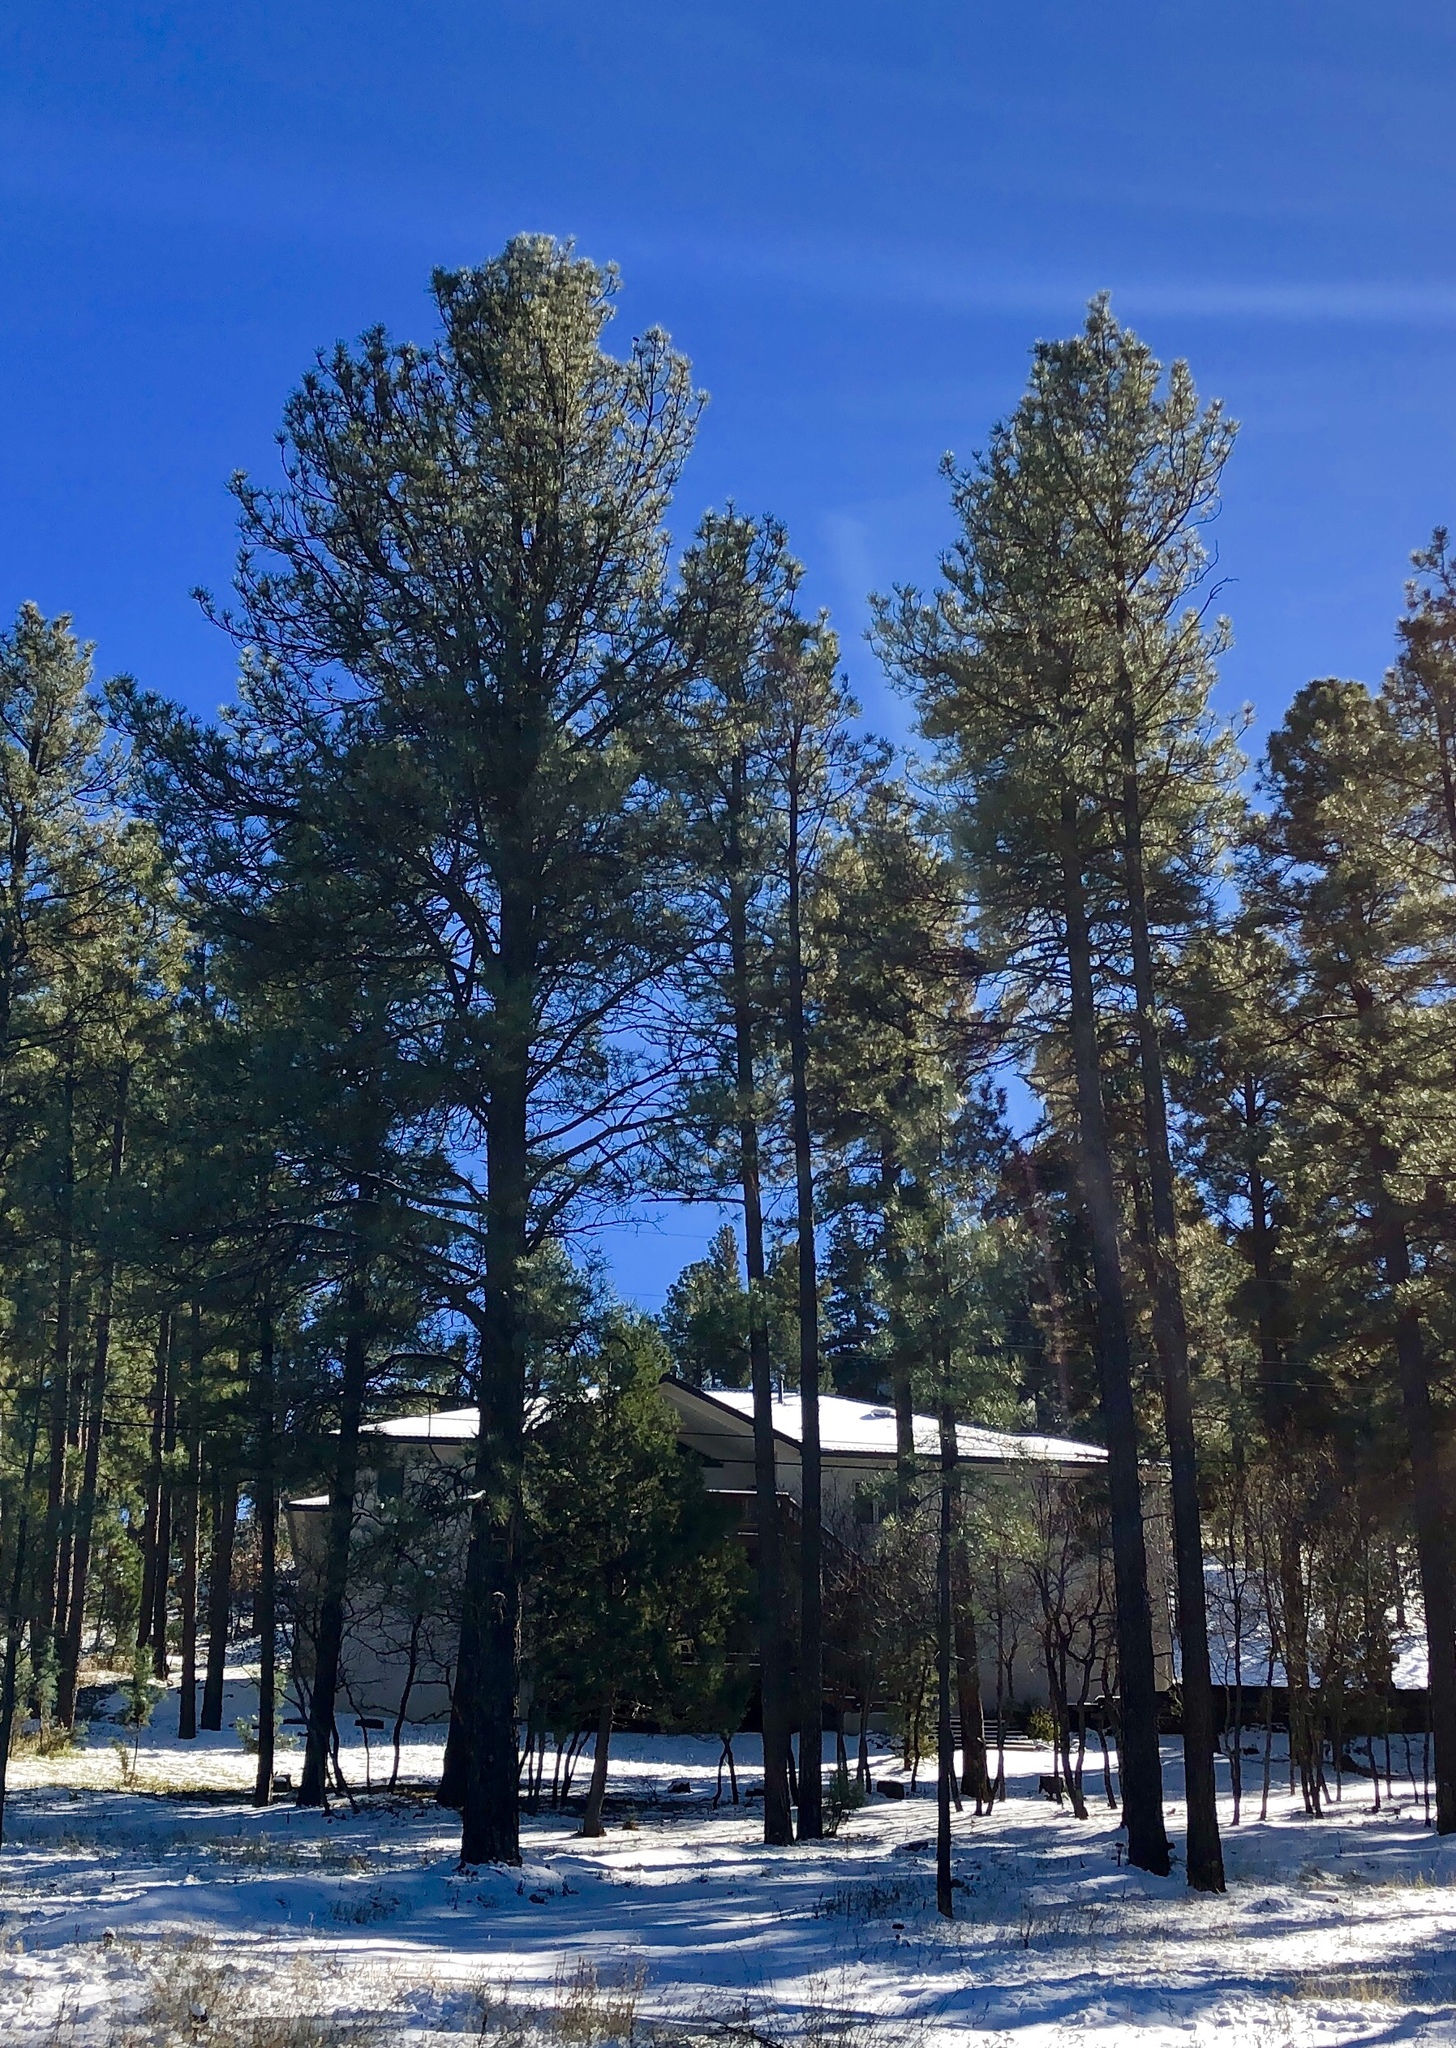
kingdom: Plantae
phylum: Tracheophyta
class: Pinopsida
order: Pinales
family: Pinaceae
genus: Pinus
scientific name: Pinus ponderosa
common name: Western yellow-pine
